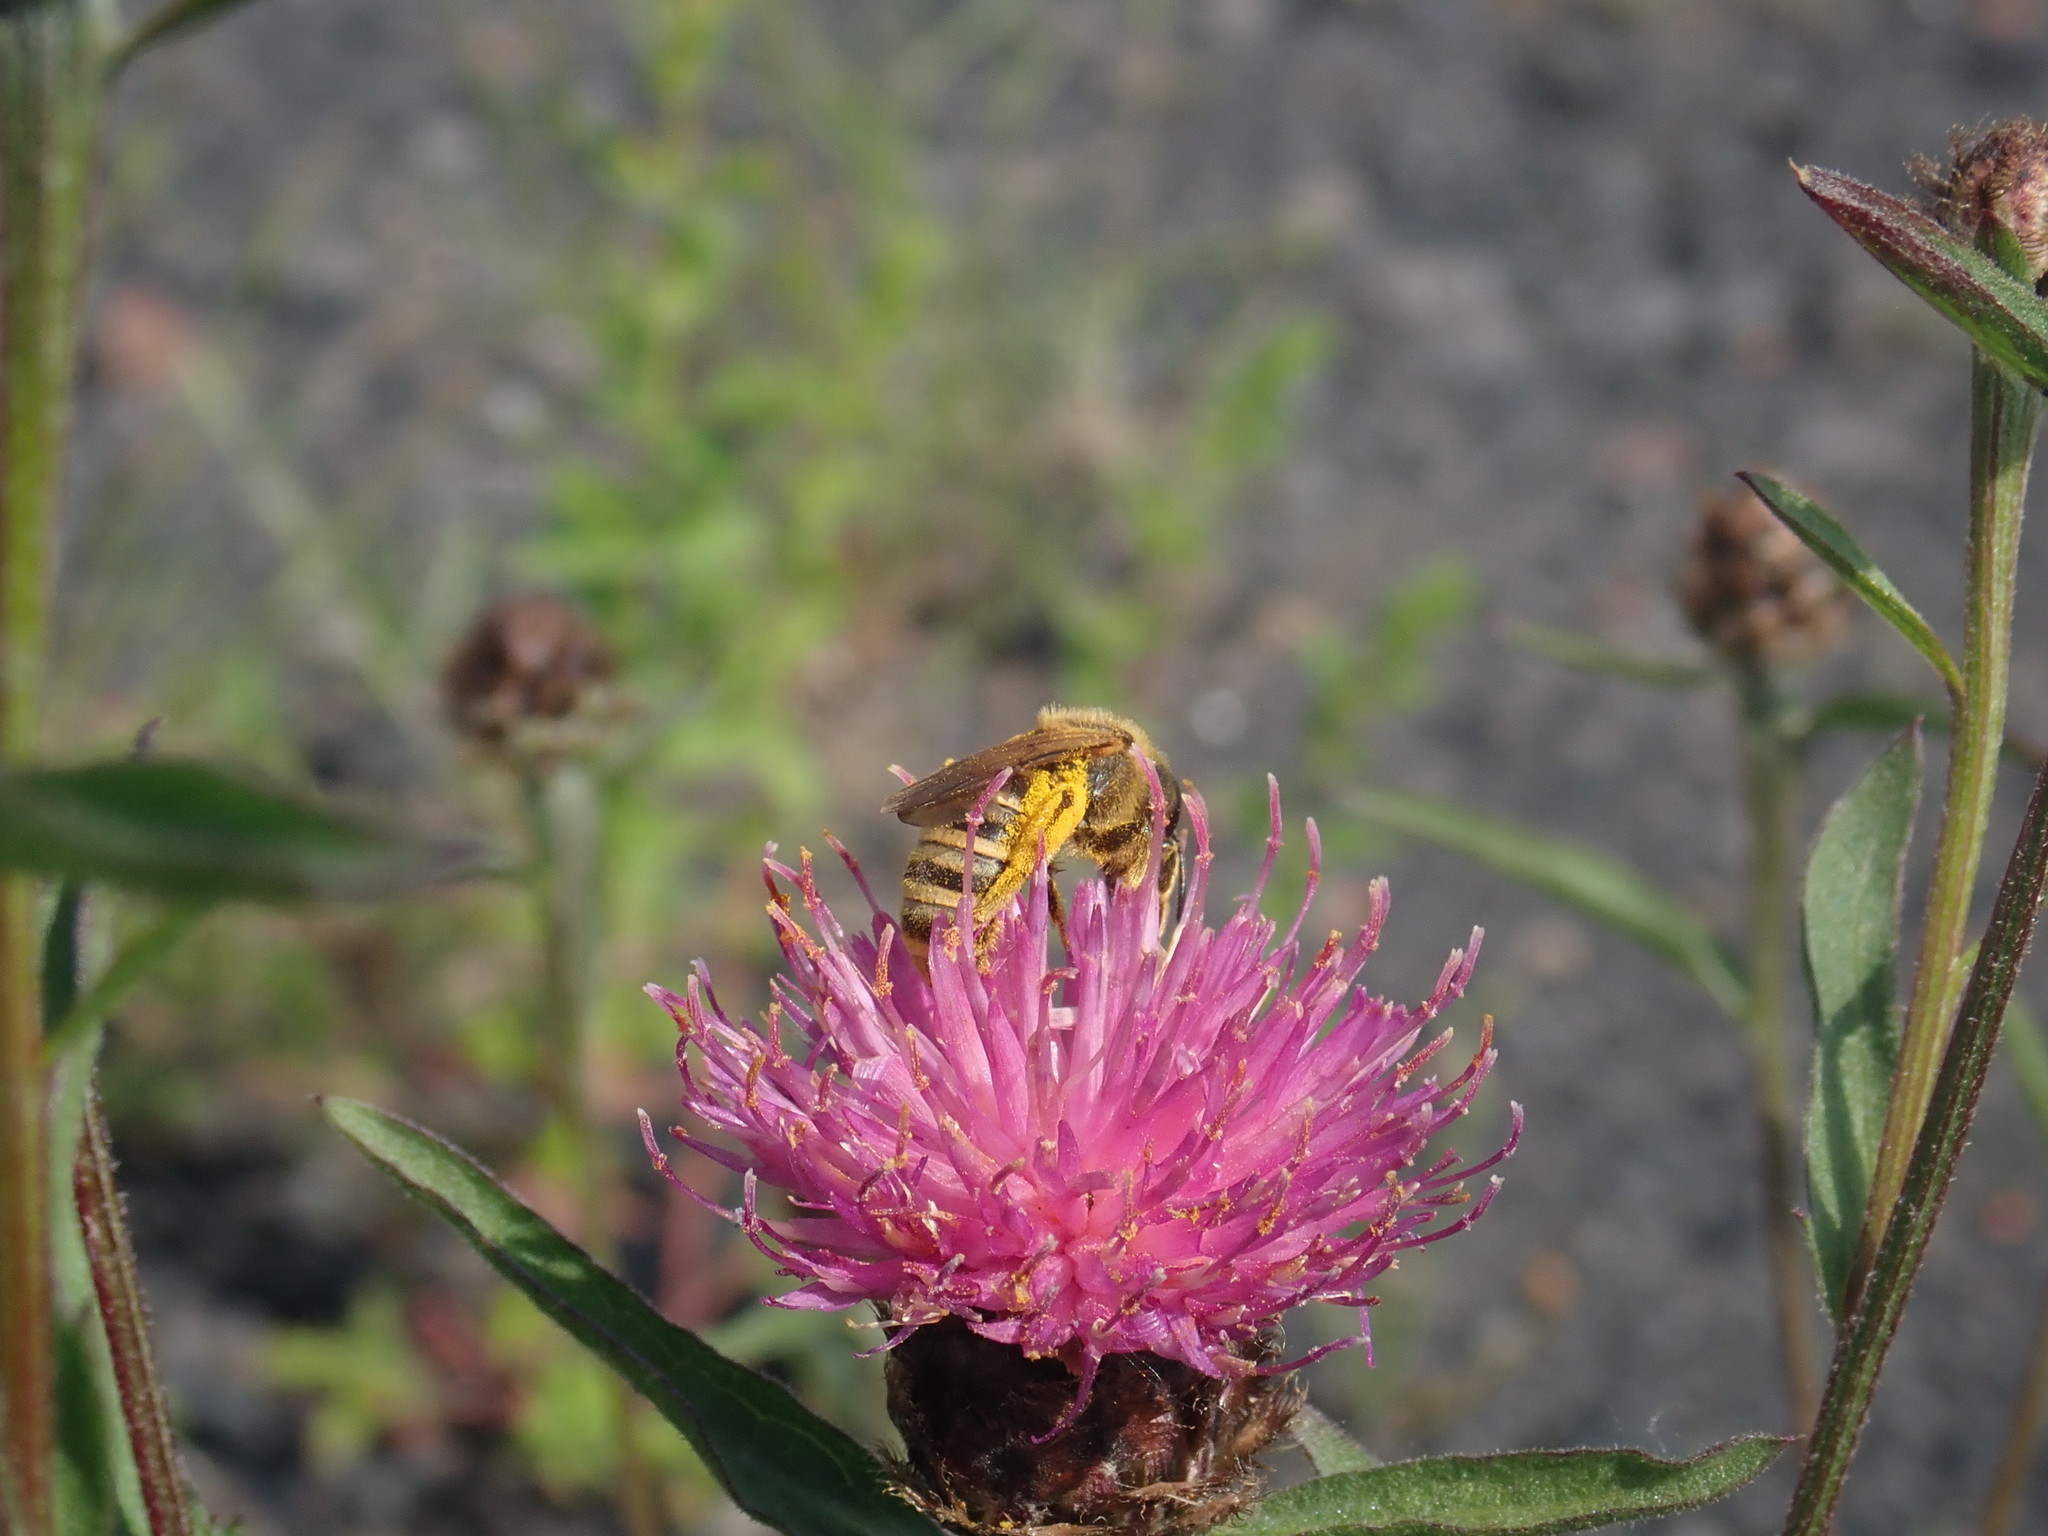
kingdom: Animalia
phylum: Arthropoda
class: Insecta
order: Hymenoptera
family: Halictidae
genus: Halictus
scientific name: Halictus scabiosae
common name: Great banded furrow bee
